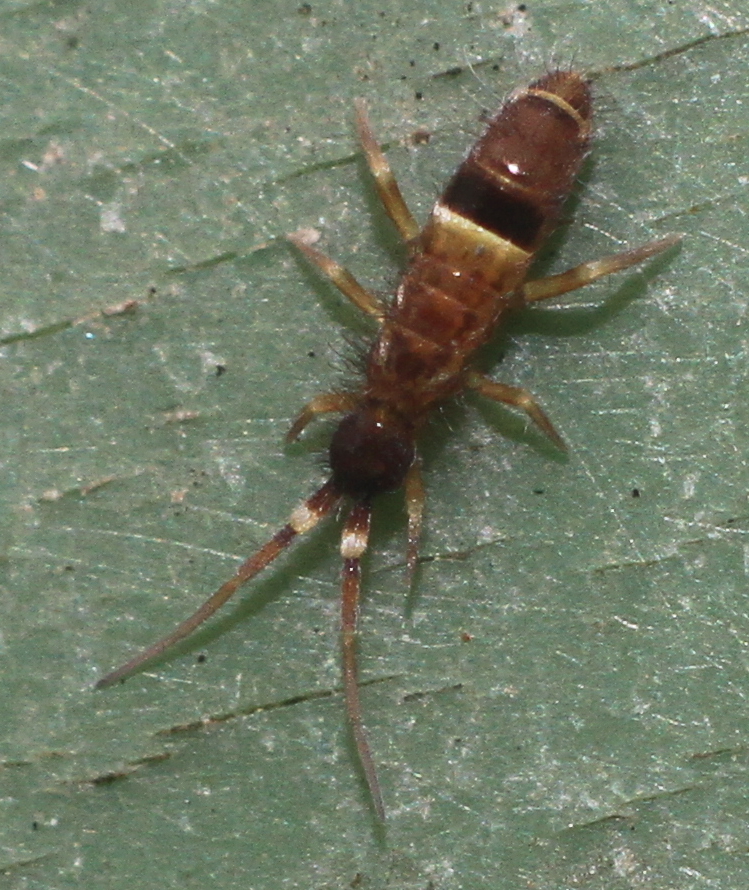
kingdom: Animalia
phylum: Arthropoda
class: Collembola
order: Entomobryomorpha
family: Orchesellidae
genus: Orchesella
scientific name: Orchesella cincta
